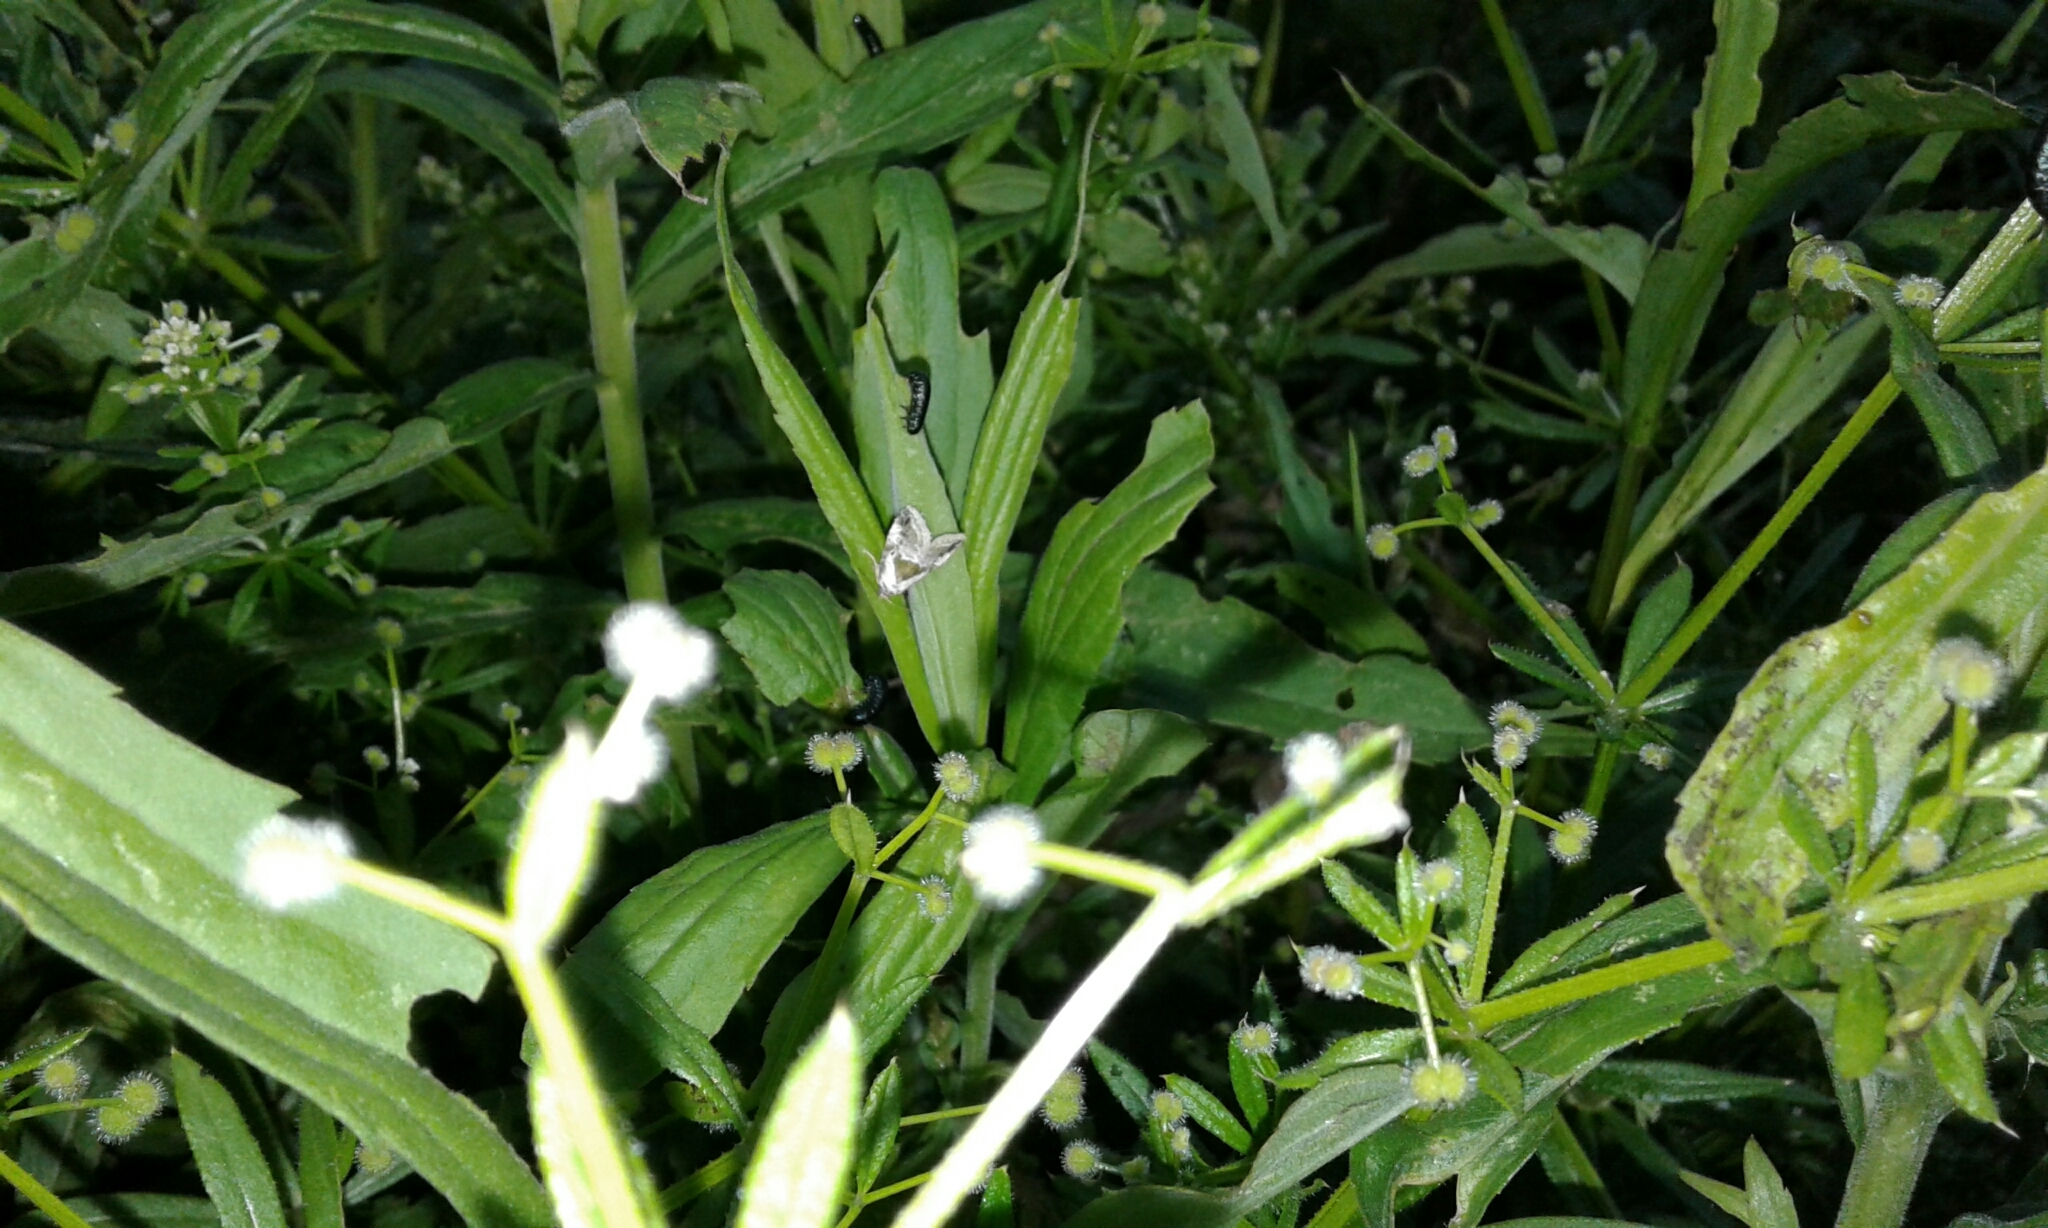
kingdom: Animalia
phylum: Arthropoda
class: Insecta
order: Lepidoptera
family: Noctuidae
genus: Maliattha
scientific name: Maliattha synochitis
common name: Black-dotted glyph
